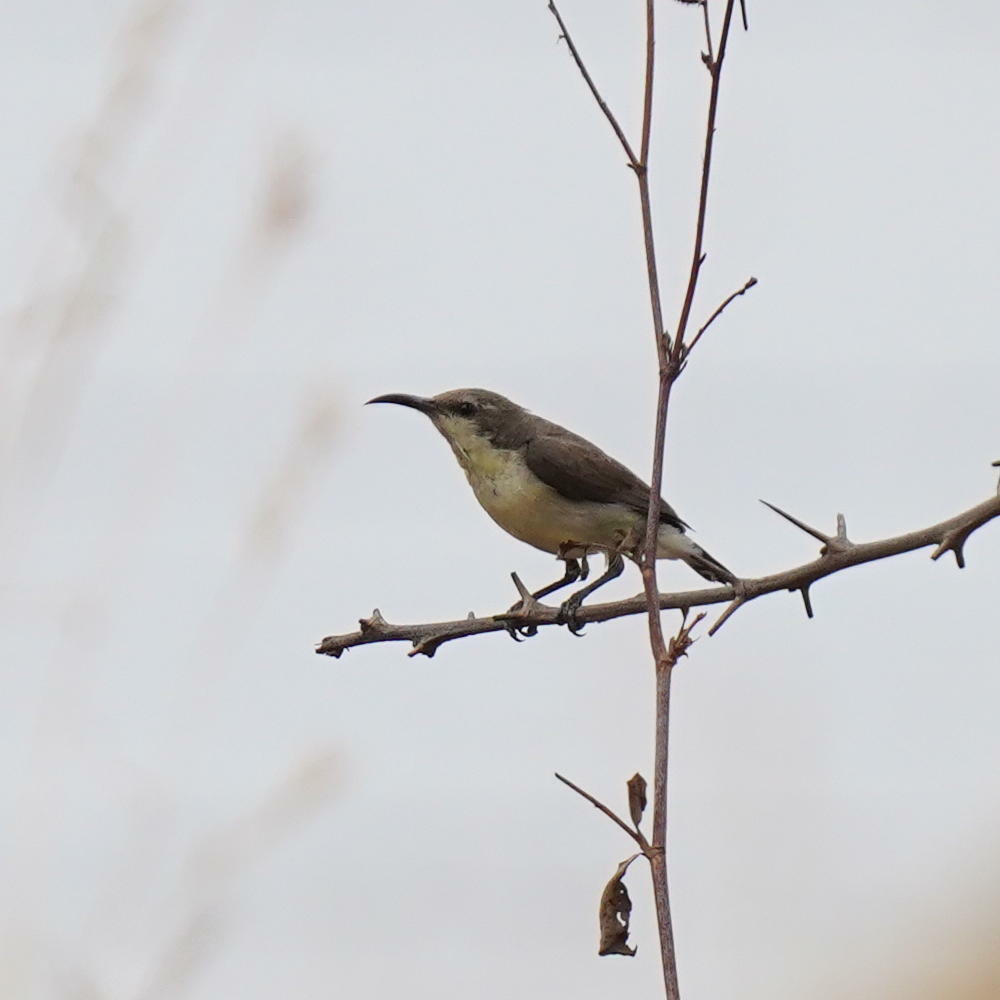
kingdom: Animalia
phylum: Chordata
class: Aves
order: Passeriformes
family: Nectariniidae
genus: Cinnyris
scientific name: Cinnyris asiaticus
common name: Purple sunbird
